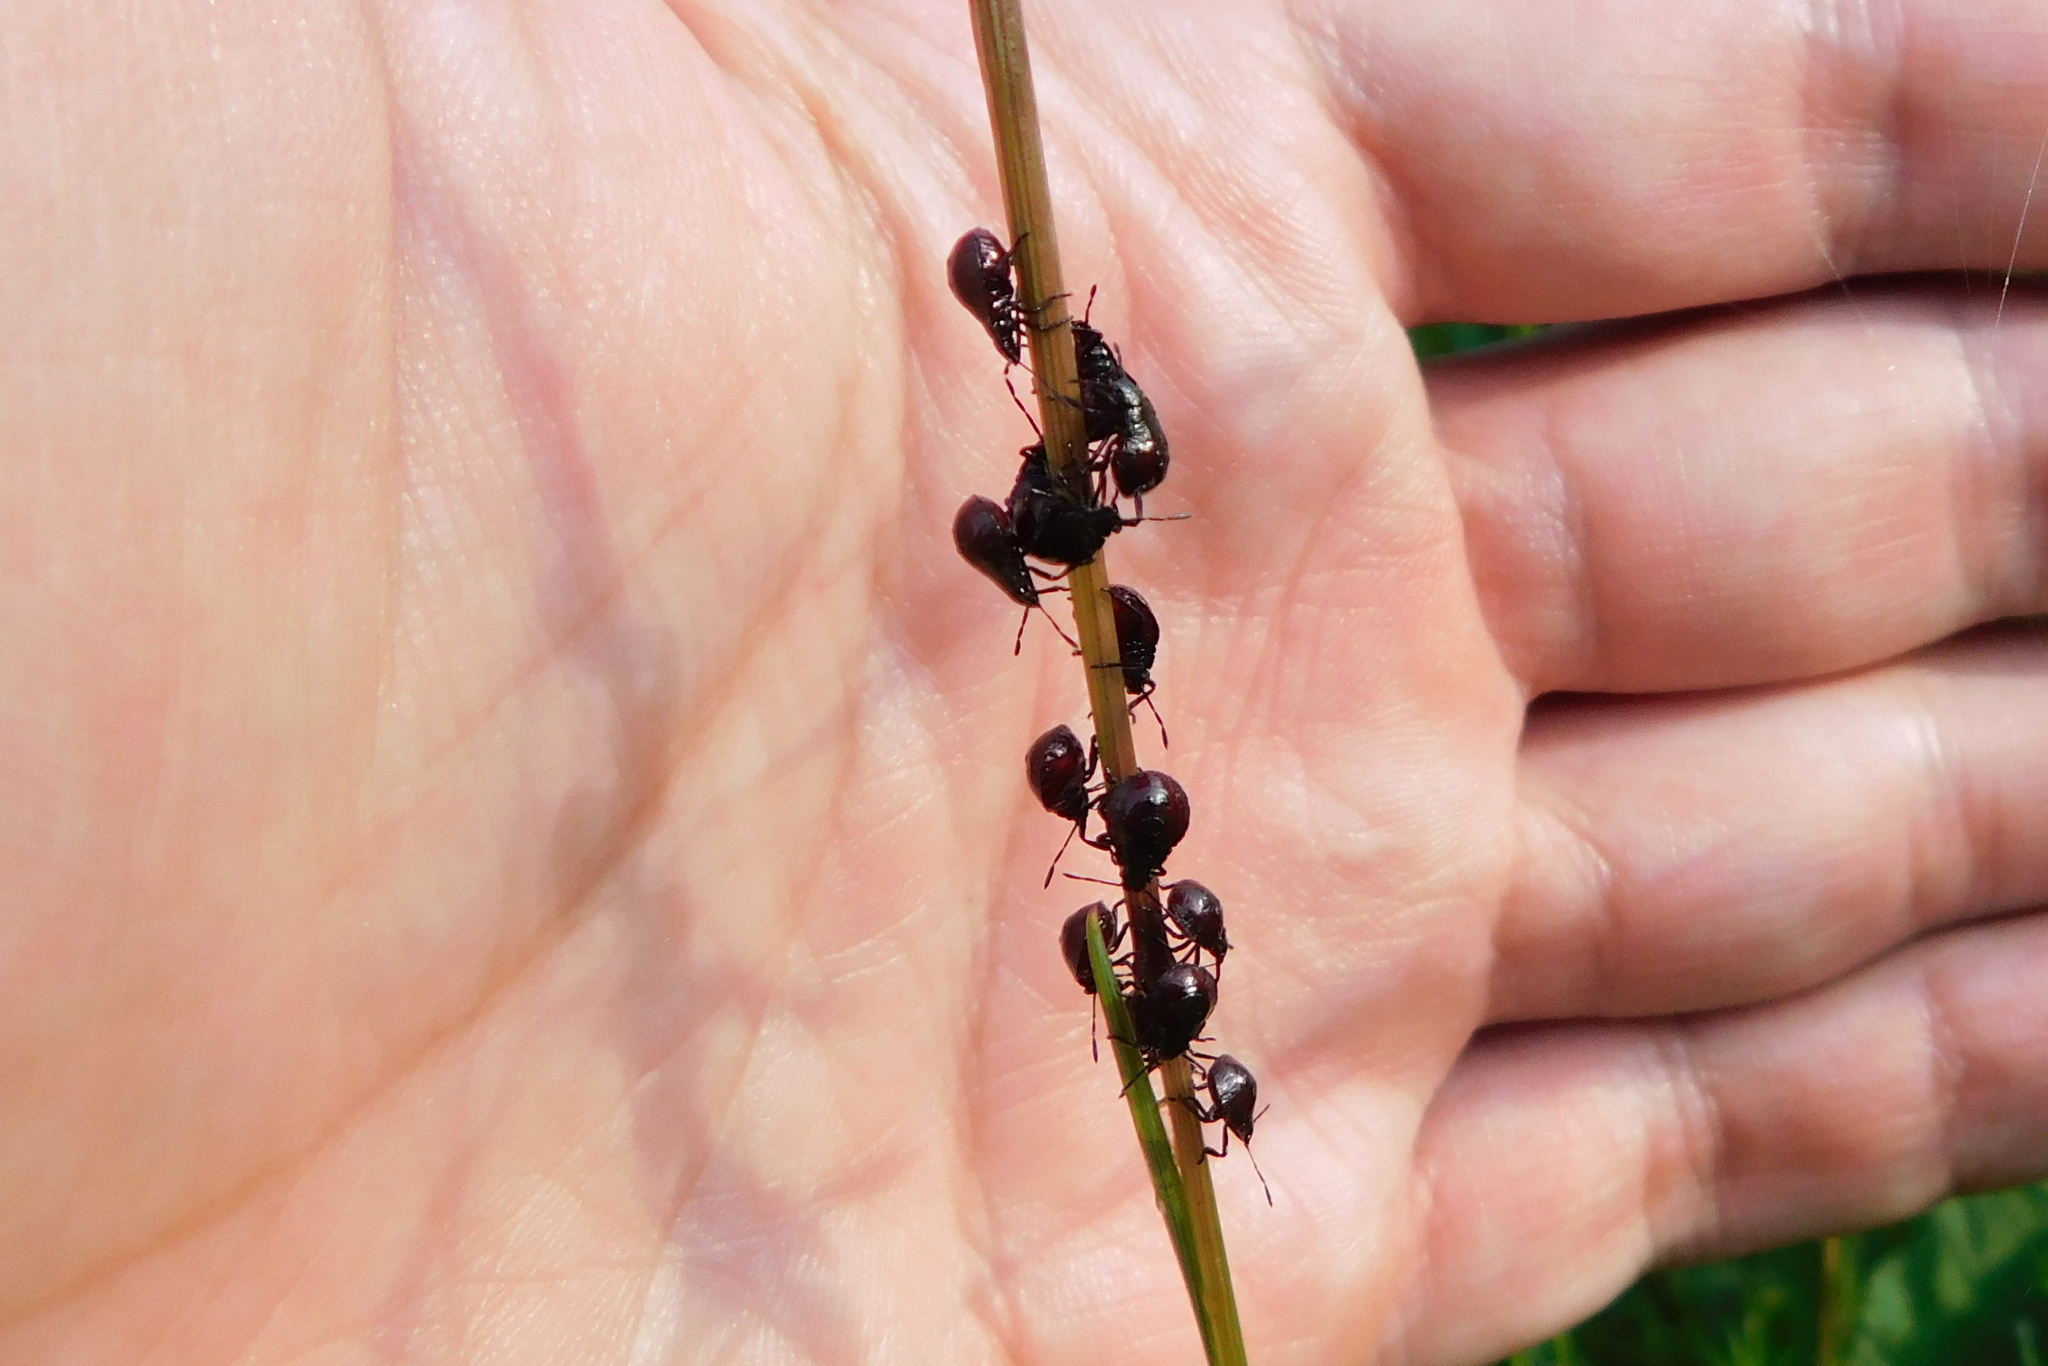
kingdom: Animalia
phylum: Arthropoda
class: Insecta
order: Hemiptera
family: Pentatomidae
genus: Picromerus
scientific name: Picromerus bidens
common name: Spiked shieldbug
